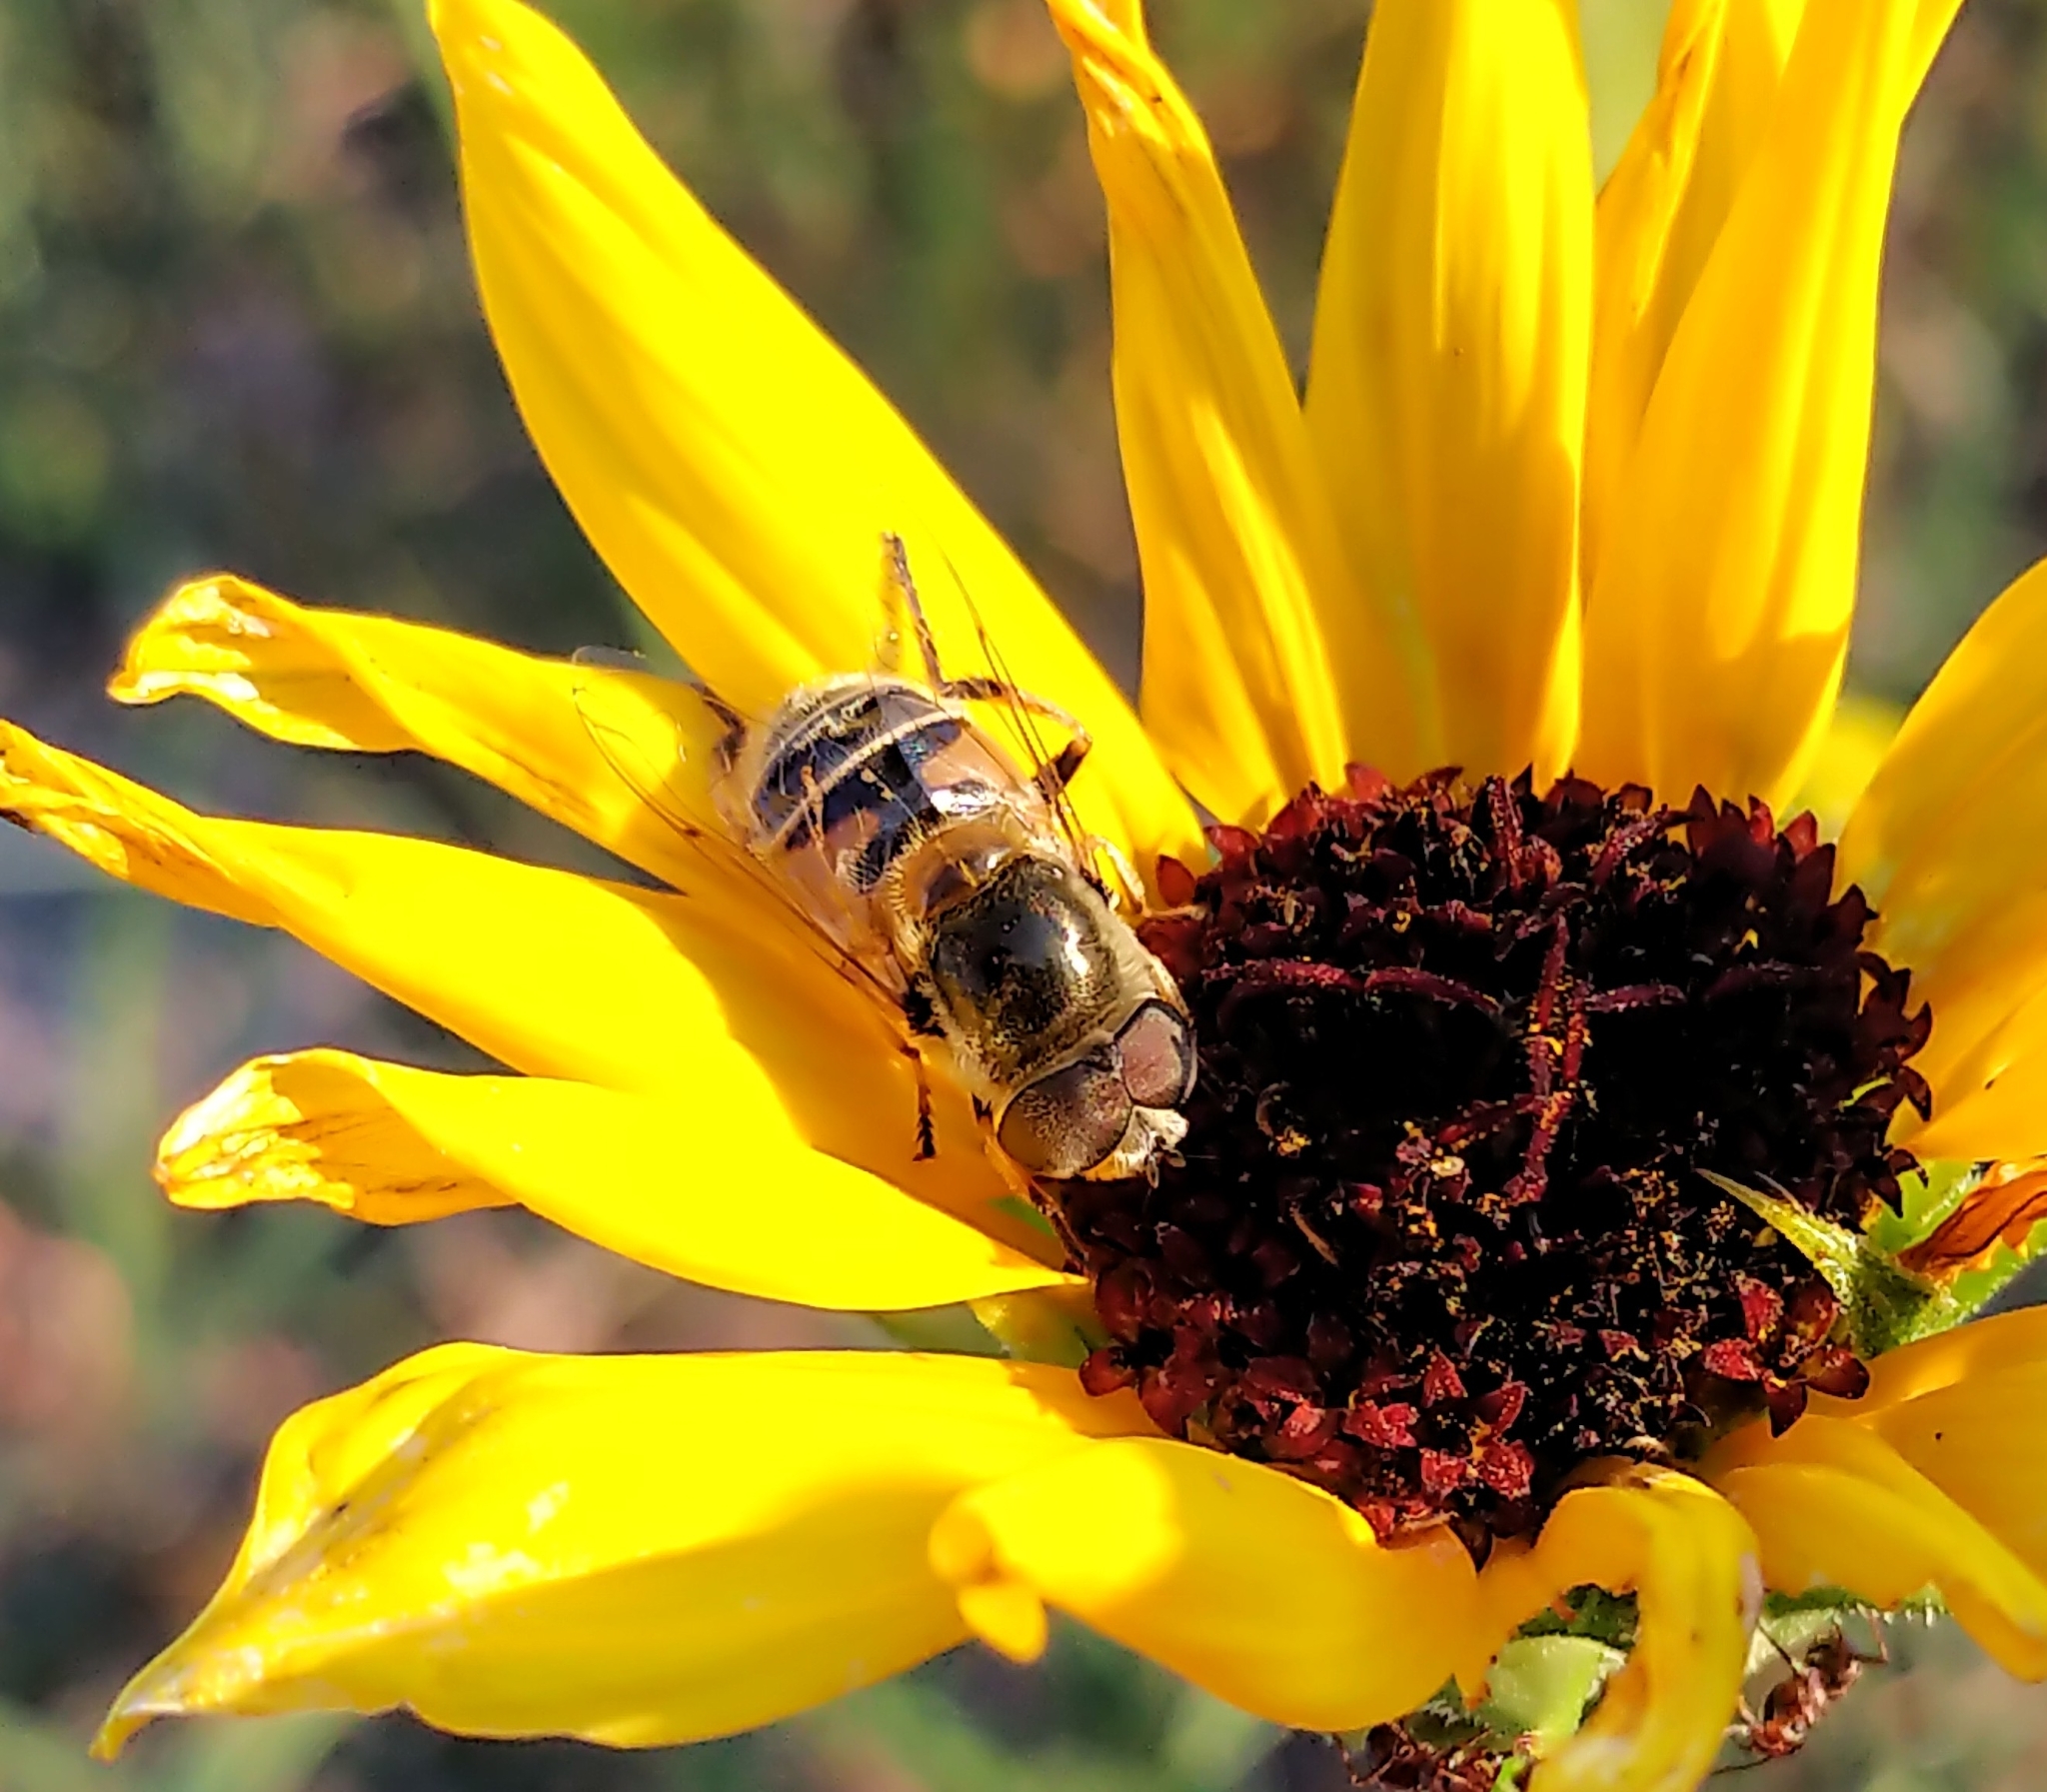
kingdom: Animalia
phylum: Arthropoda
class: Insecta
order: Diptera
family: Syrphidae
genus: Eristalis
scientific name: Eristalis stipator
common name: Yellow-shouldered drone fly
